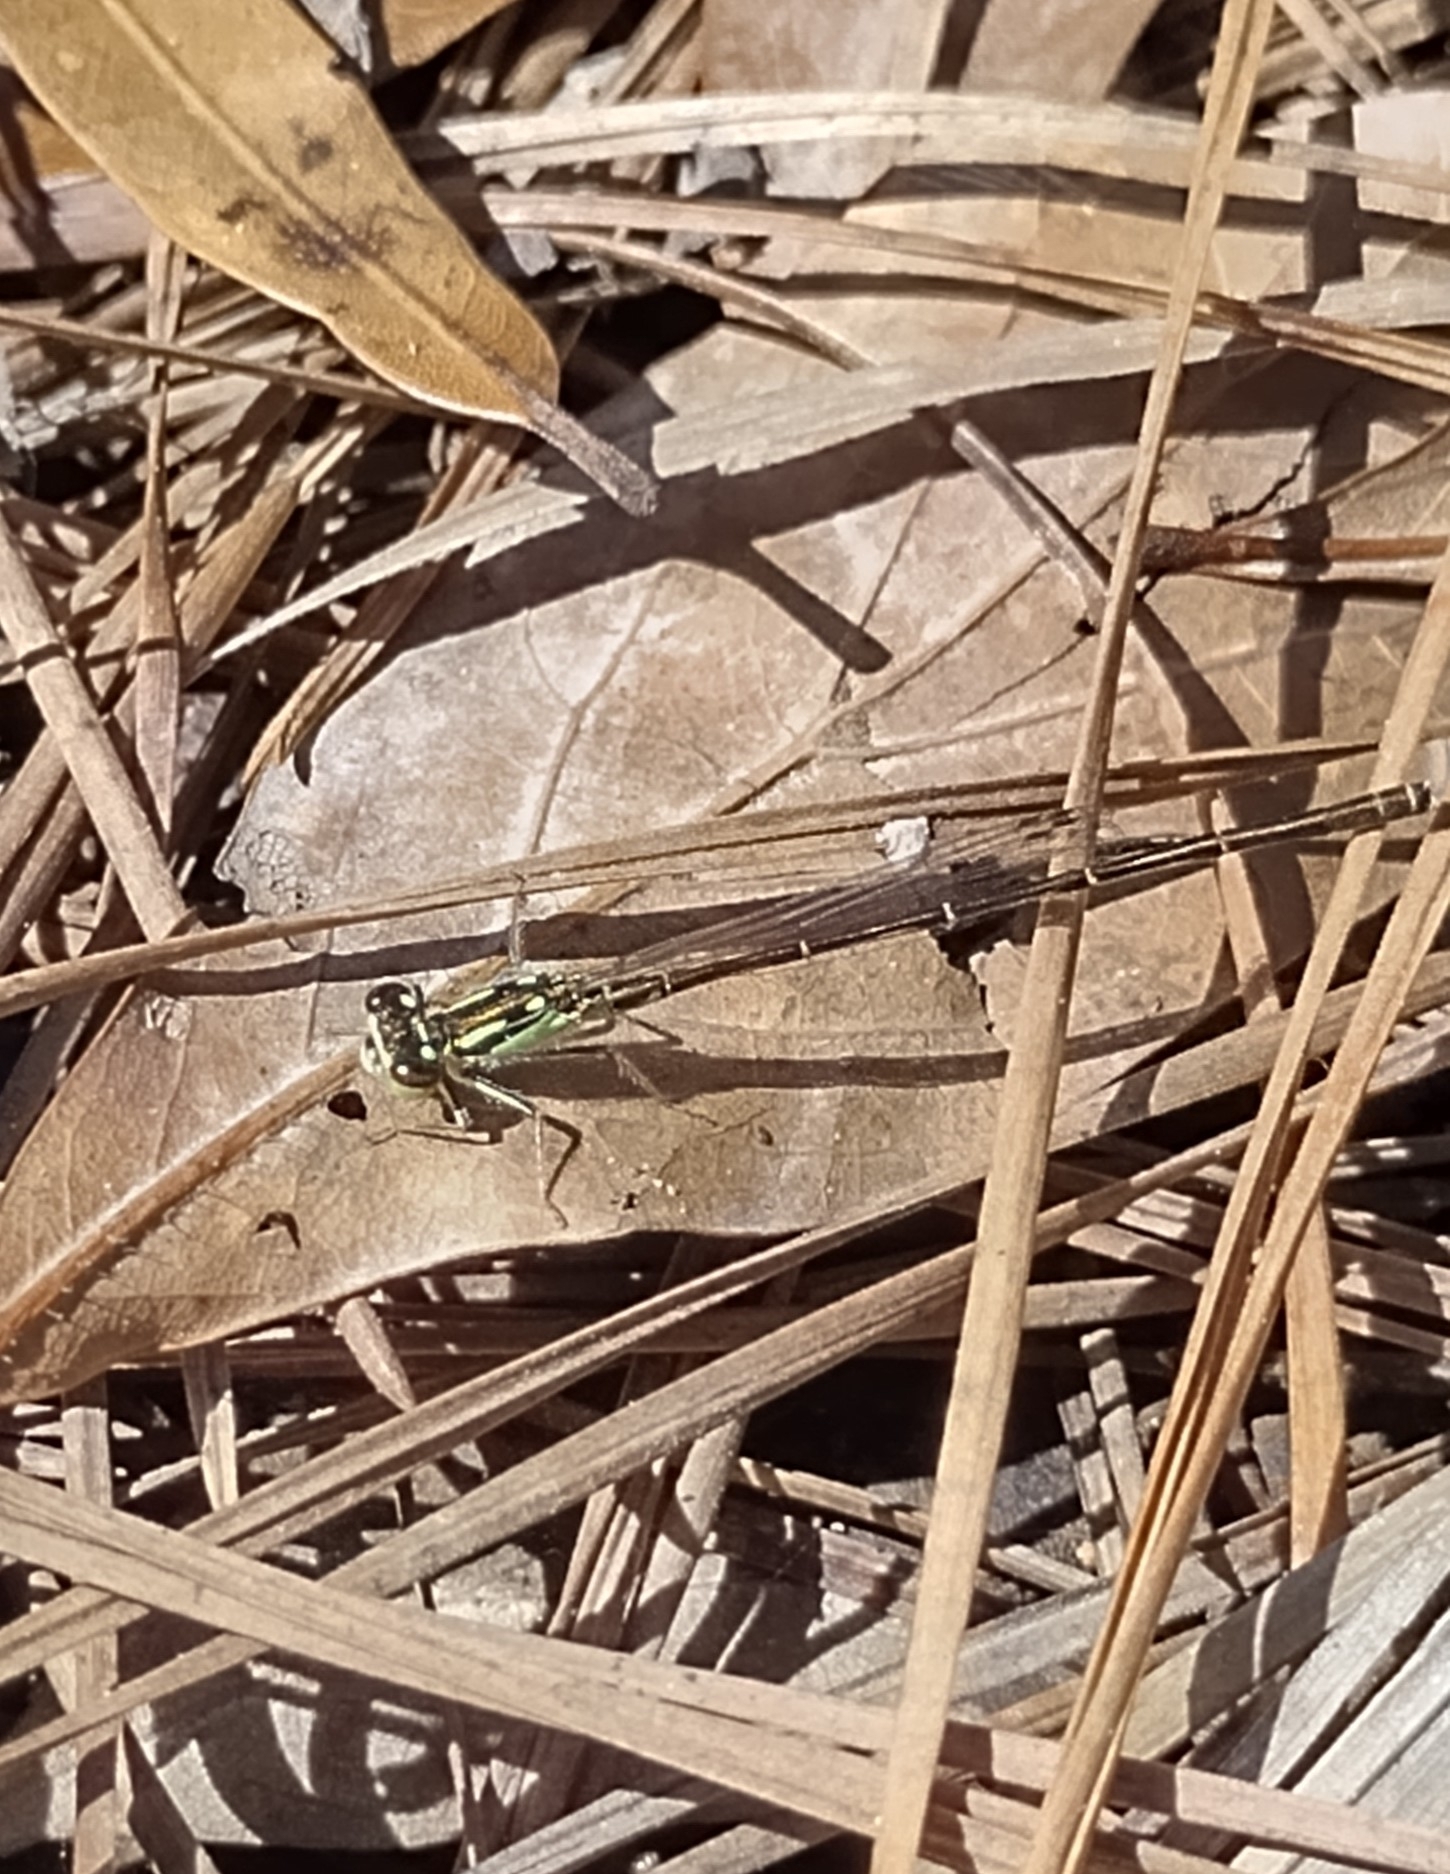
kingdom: Animalia
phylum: Arthropoda
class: Insecta
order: Odonata
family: Coenagrionidae
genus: Ischnura
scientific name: Ischnura posita
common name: Fragile forktail
